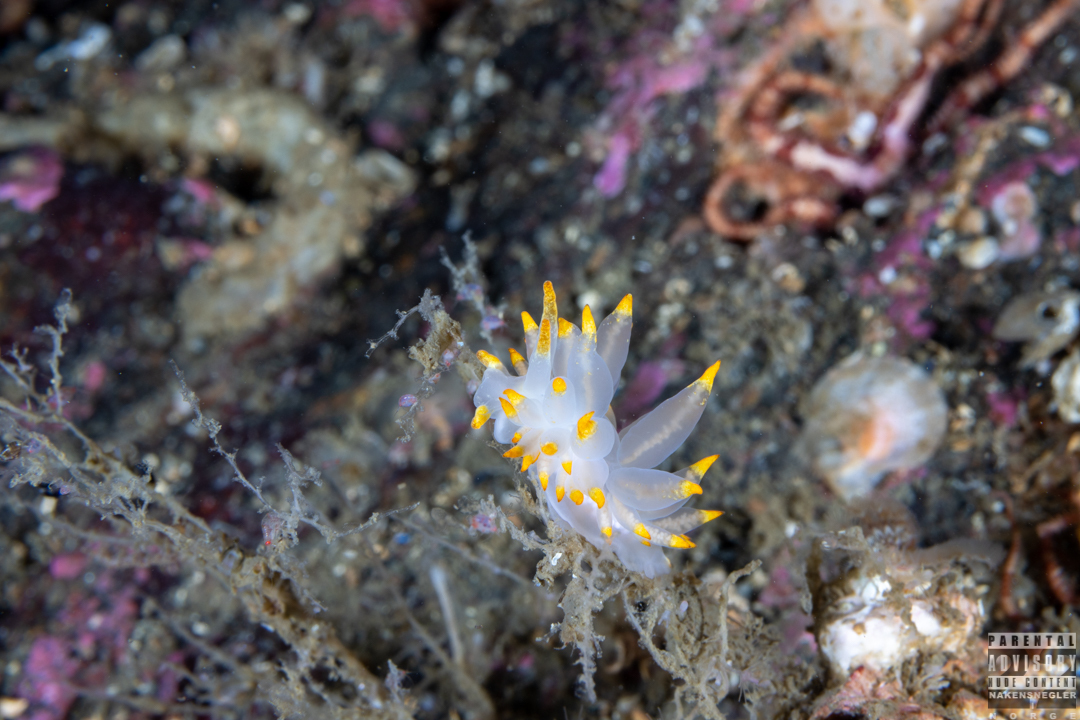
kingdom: Animalia
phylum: Mollusca
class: Gastropoda
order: Nudibranchia
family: Eubranchidae
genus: Amphorina
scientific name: Amphorina farrani
